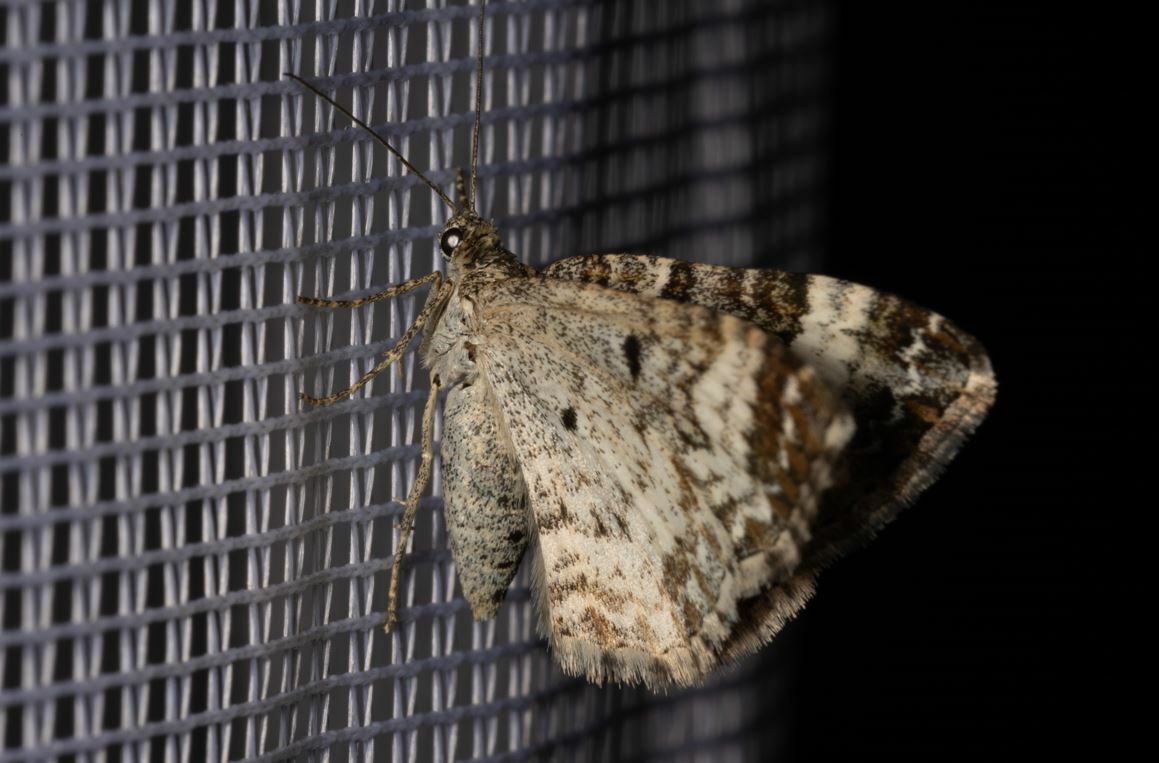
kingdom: Animalia
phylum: Arthropoda
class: Insecta
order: Lepidoptera
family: Geometridae
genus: Epirrhoe
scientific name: Epirrhoe alternata
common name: Common carpet
